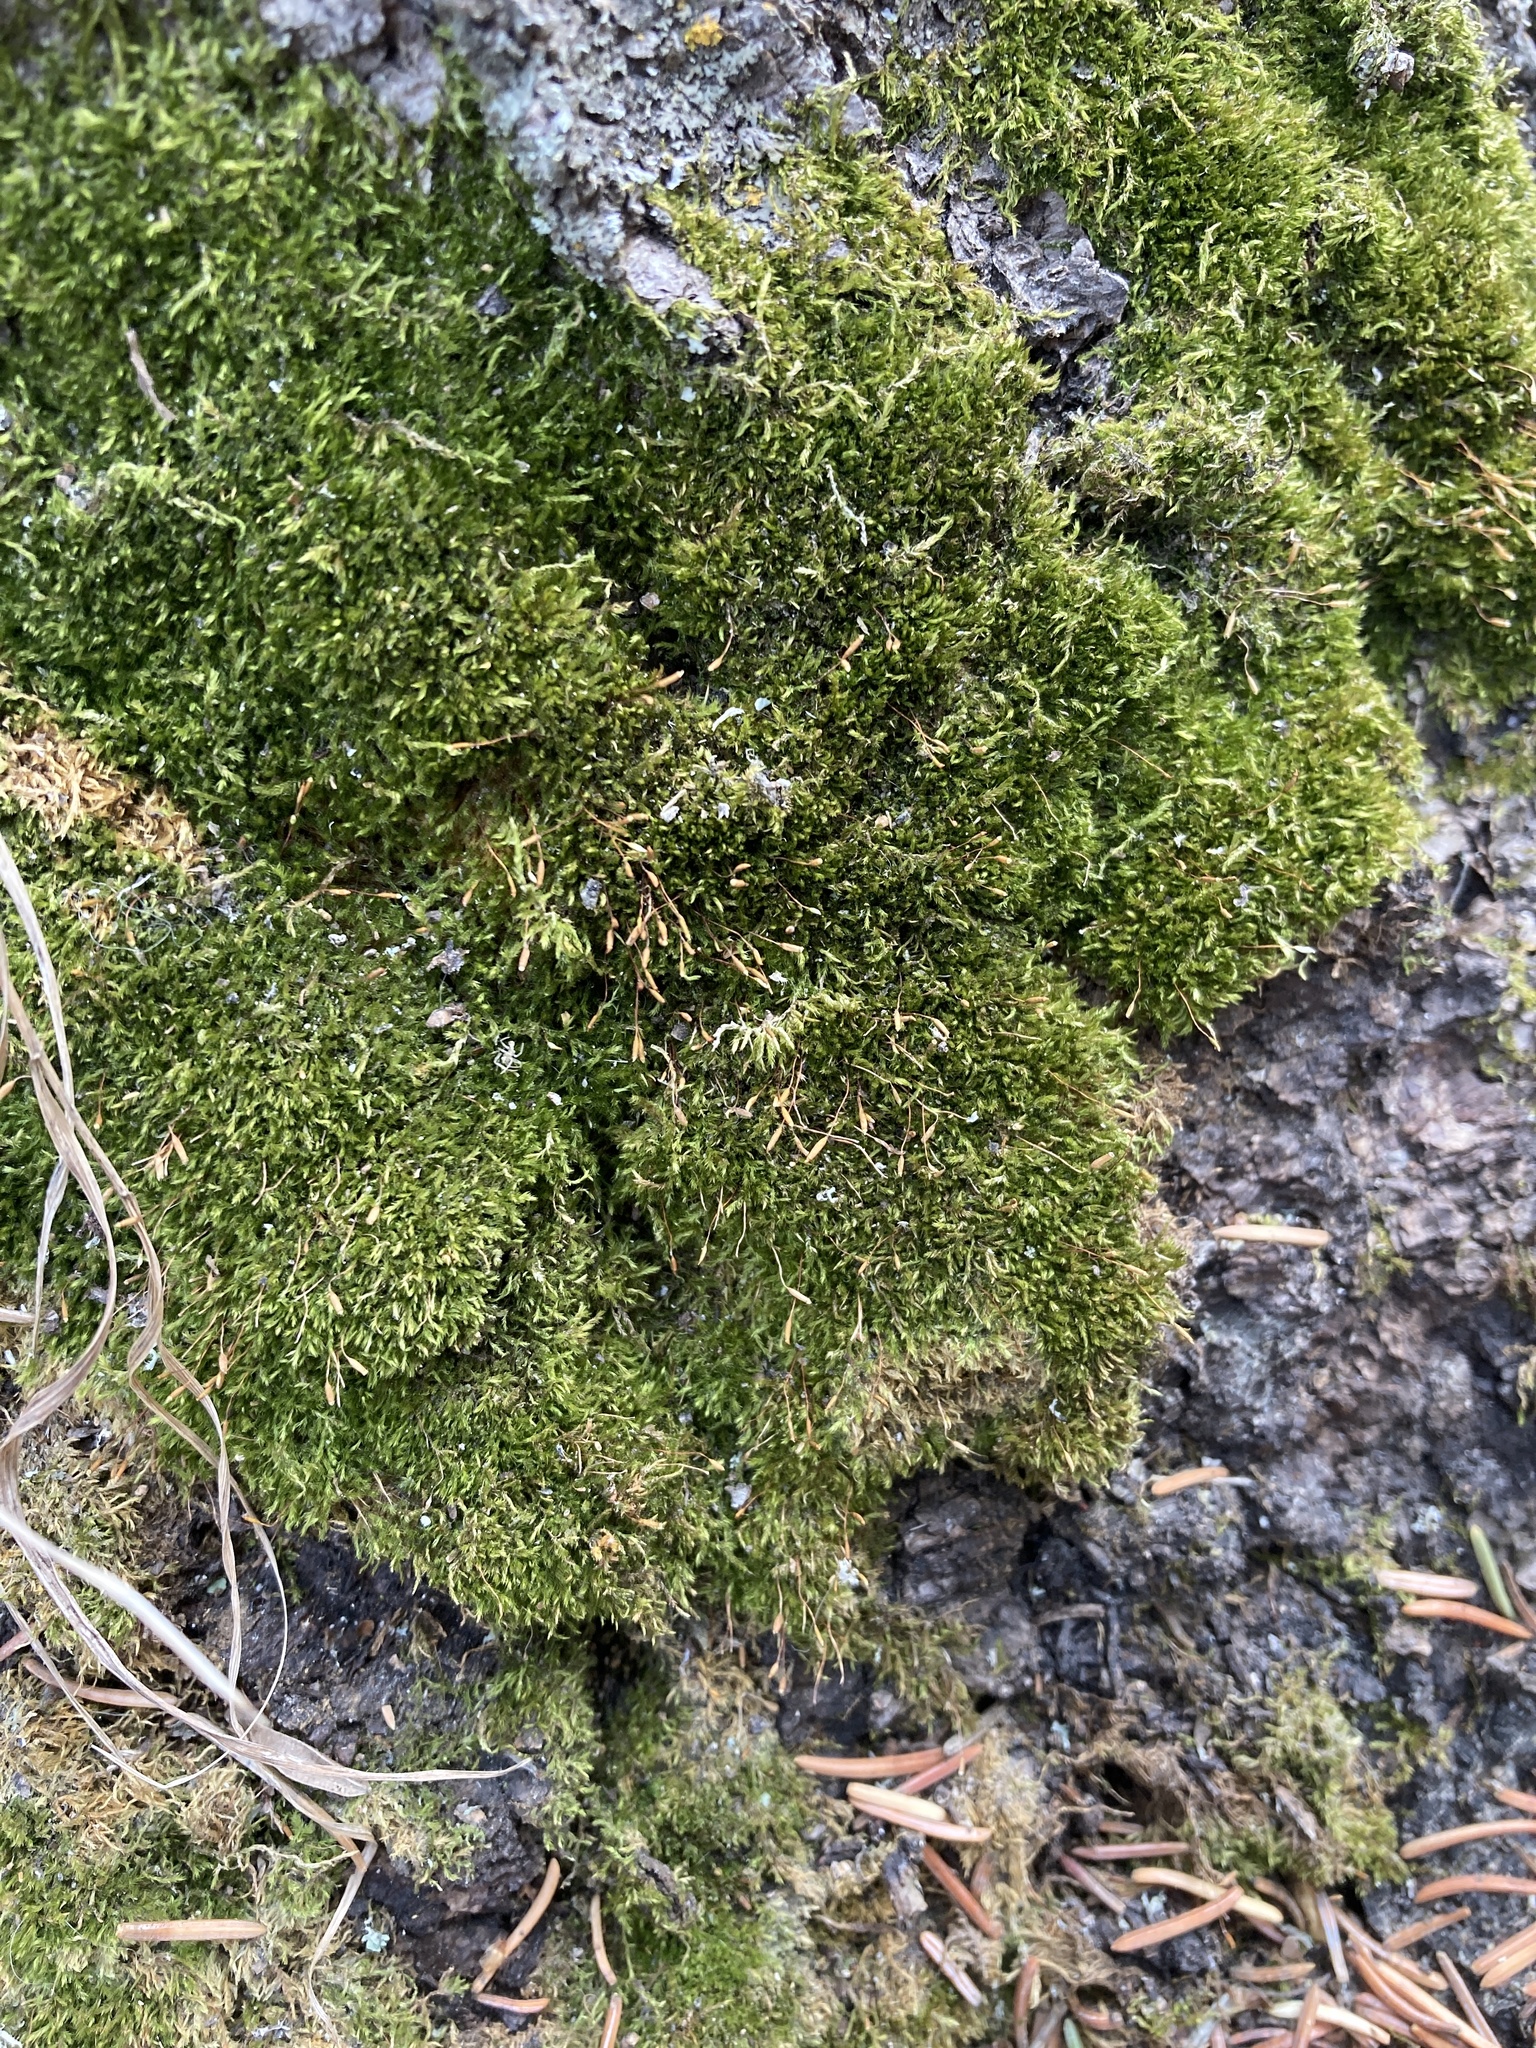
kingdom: Plantae
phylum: Bryophyta
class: Bryopsida
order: Hypnales
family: Pylaisiaceae
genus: Pylaisia
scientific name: Pylaisia polyantha
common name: Many-flowered leskea
